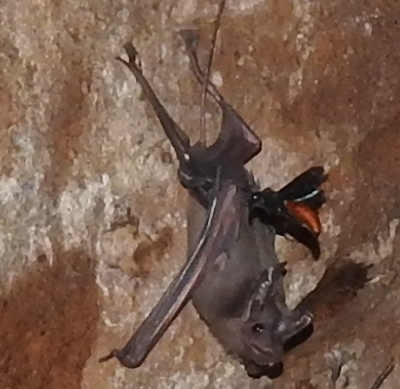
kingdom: Animalia
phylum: Arthropoda
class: Insecta
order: Hymenoptera
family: Eumenidae
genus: Anterhynchium
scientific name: Anterhynchium abdominale
